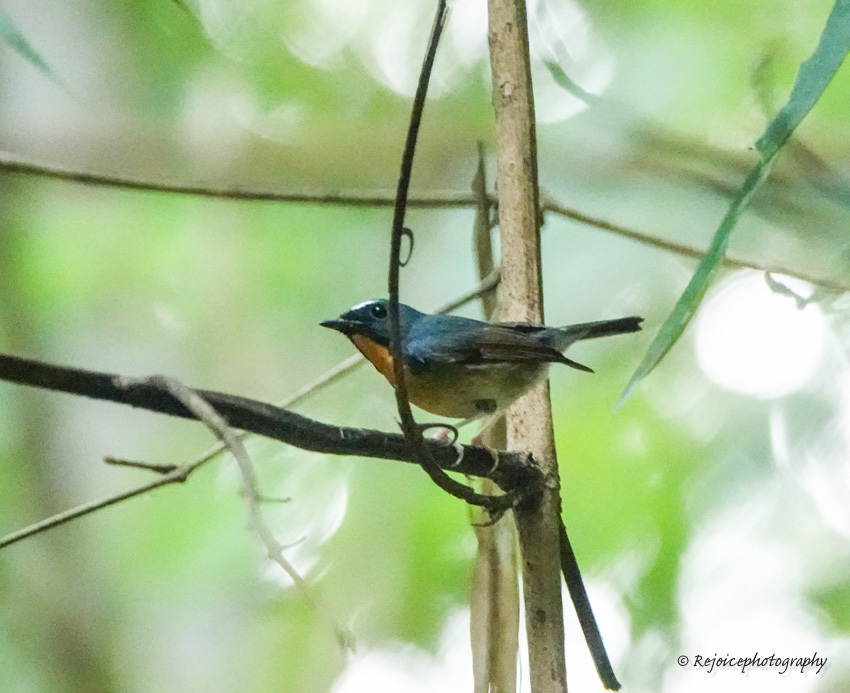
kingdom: Animalia
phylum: Chordata
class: Aves
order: Passeriformes
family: Muscicapidae
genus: Ficedula
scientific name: Ficedula hyperythra
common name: Snowy-browed flycatcher
